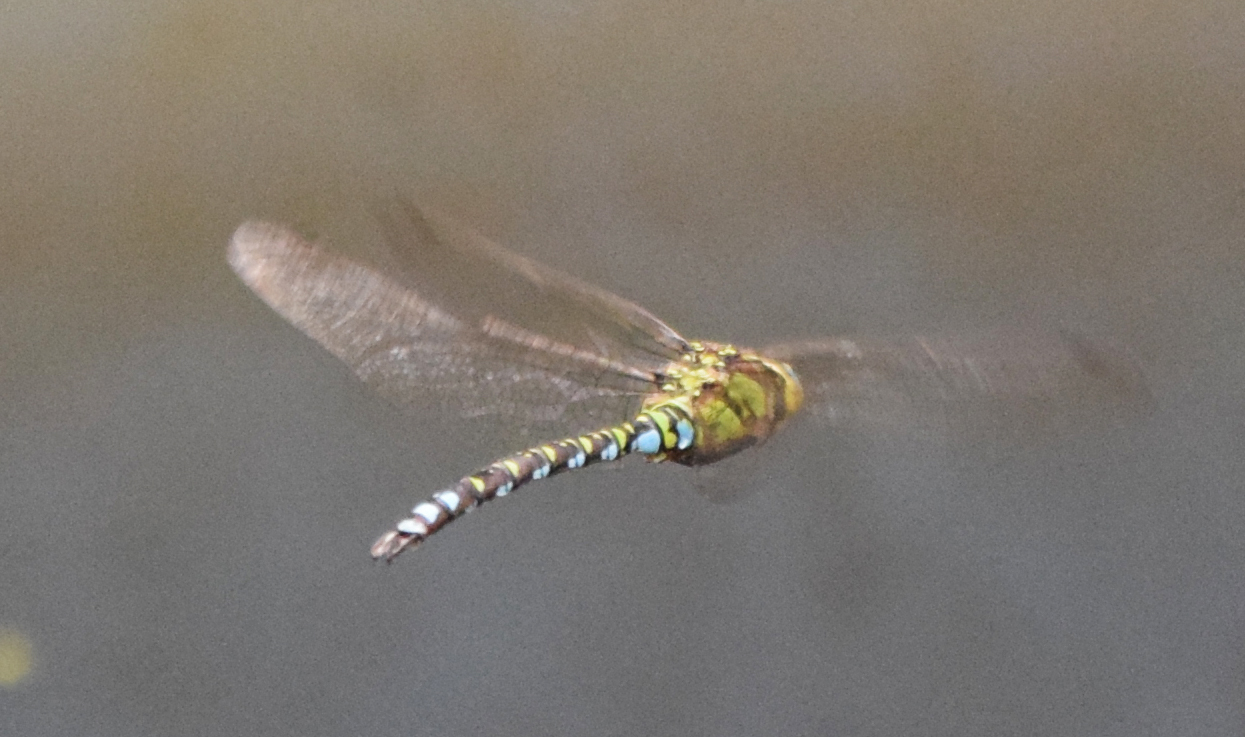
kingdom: Animalia
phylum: Arthropoda
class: Insecta
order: Odonata
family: Aeshnidae
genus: Aeshna
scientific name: Aeshna cyanea
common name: Southern hawker
